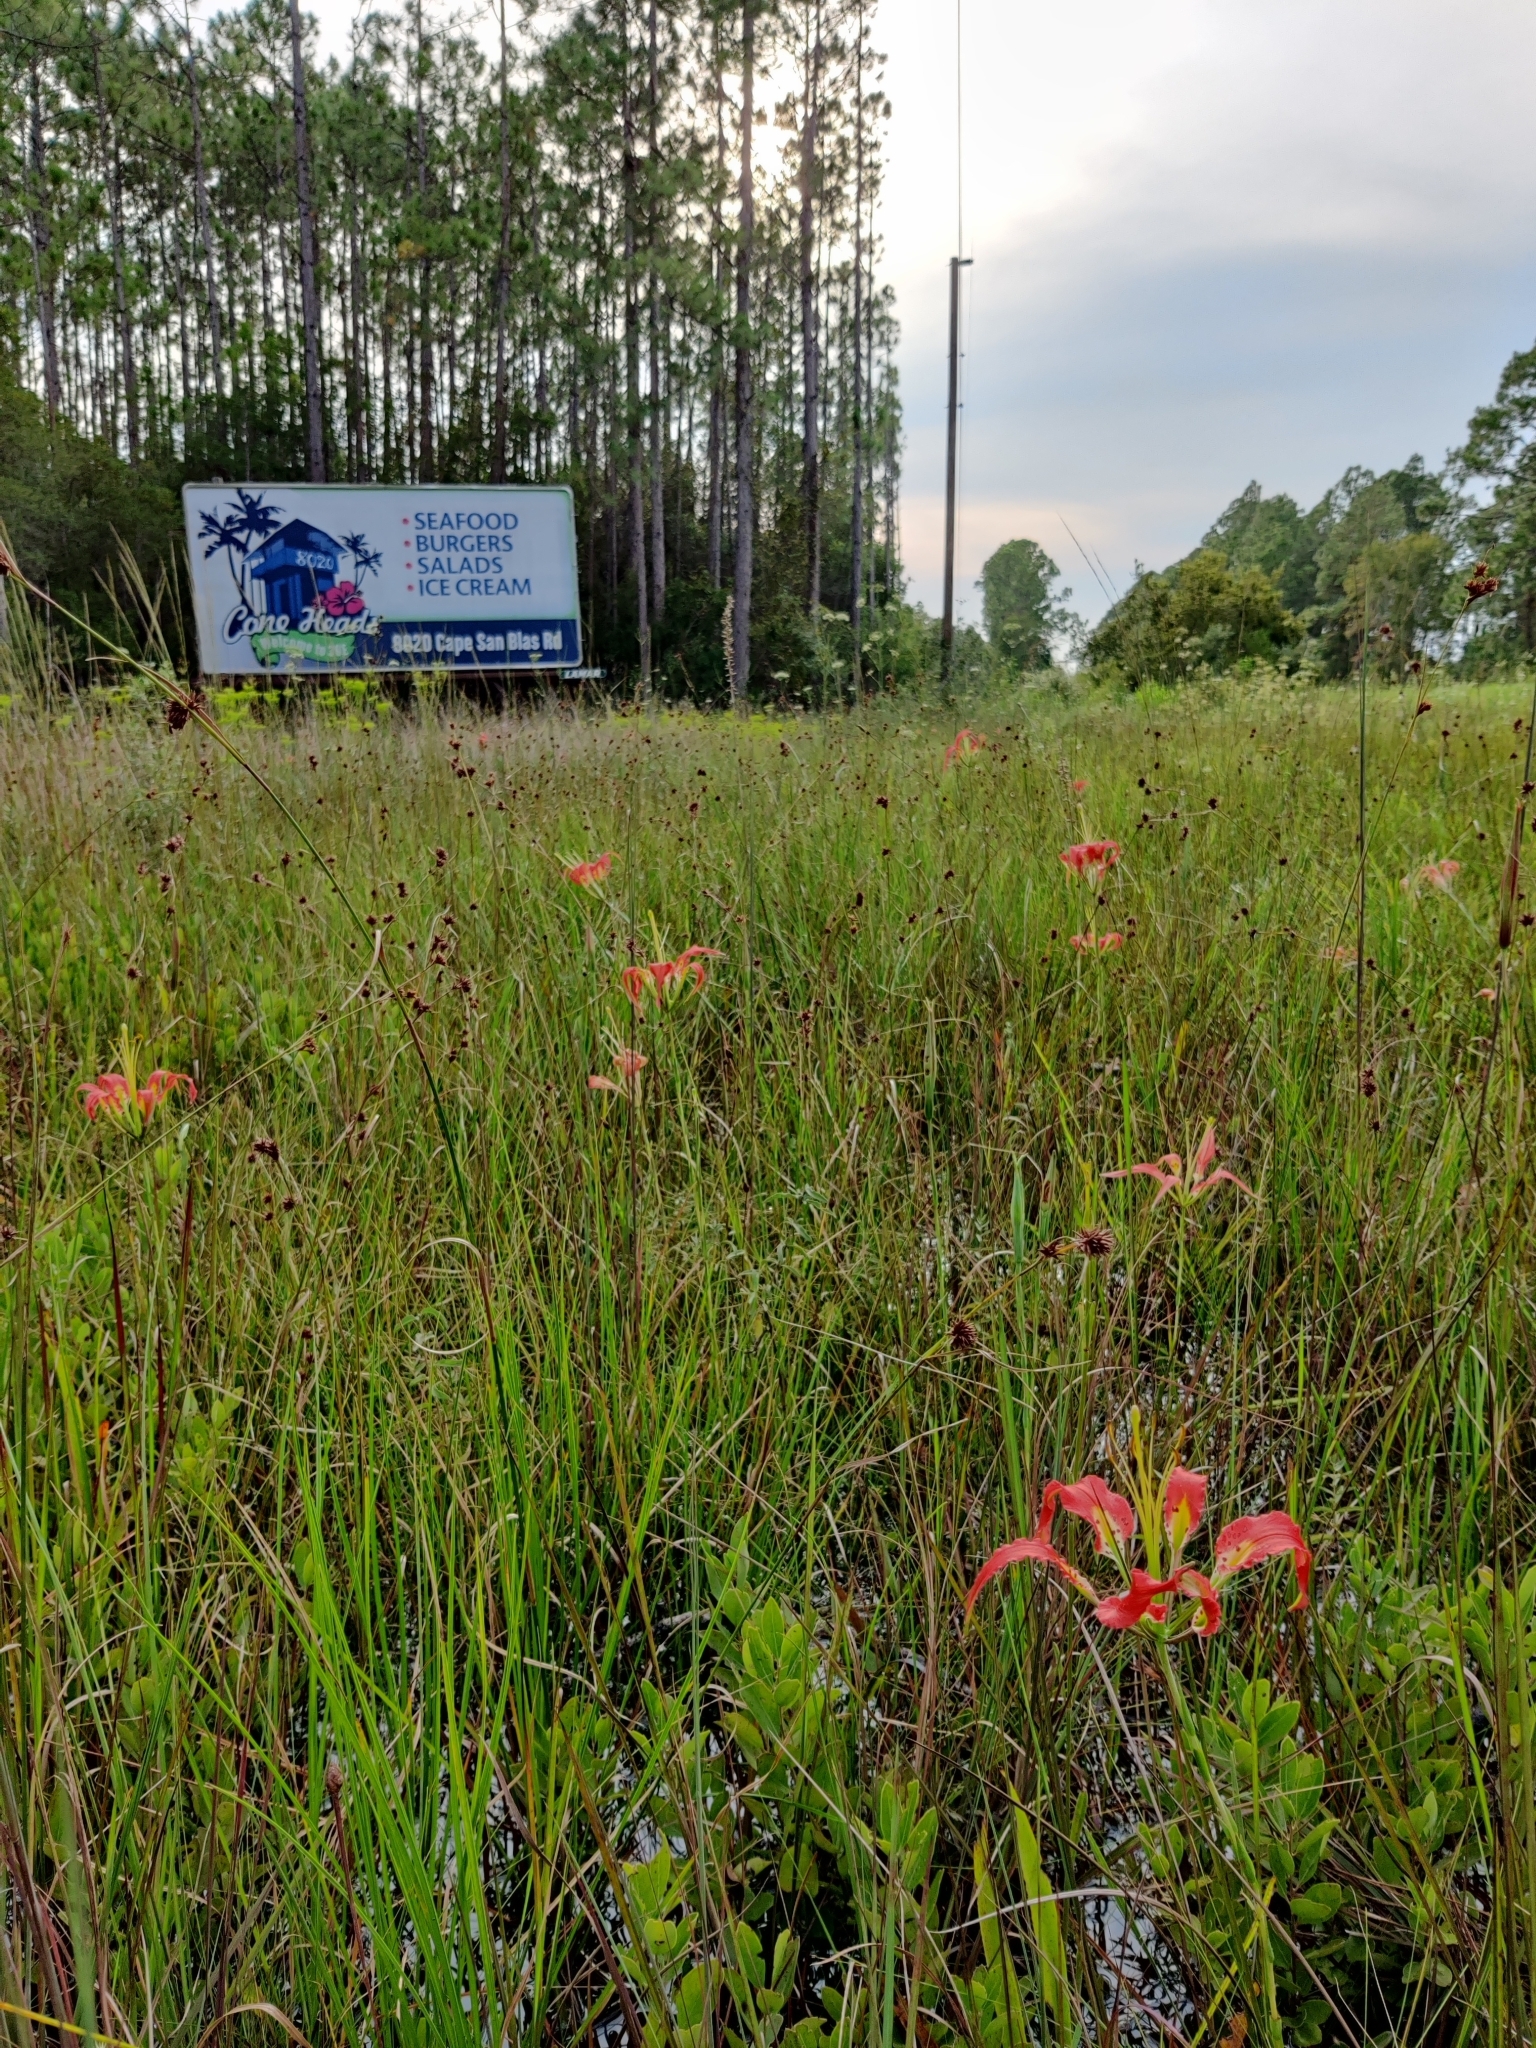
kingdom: Plantae
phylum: Tracheophyta
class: Liliopsida
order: Liliales
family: Liliaceae
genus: Lilium
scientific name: Lilium catesbaei
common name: Catesby's lily
